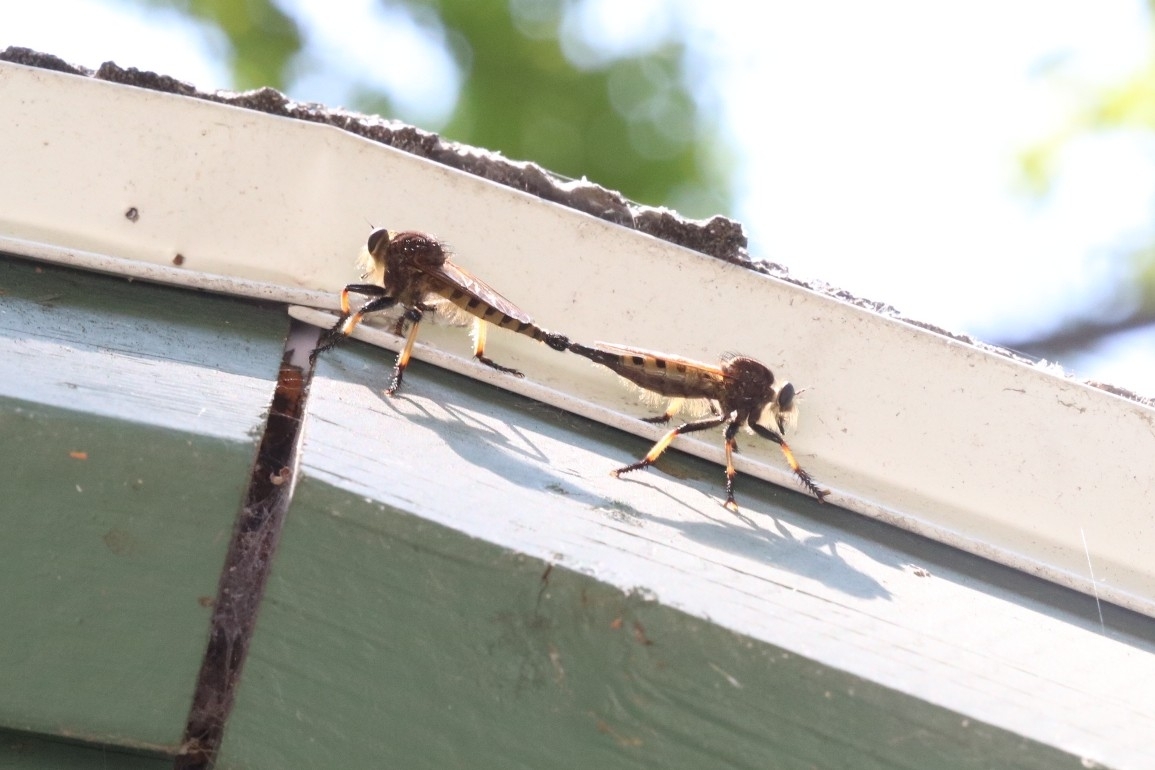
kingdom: Animalia
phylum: Arthropoda
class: Insecta
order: Diptera
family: Asilidae
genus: Promachus
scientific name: Promachus rufipes
